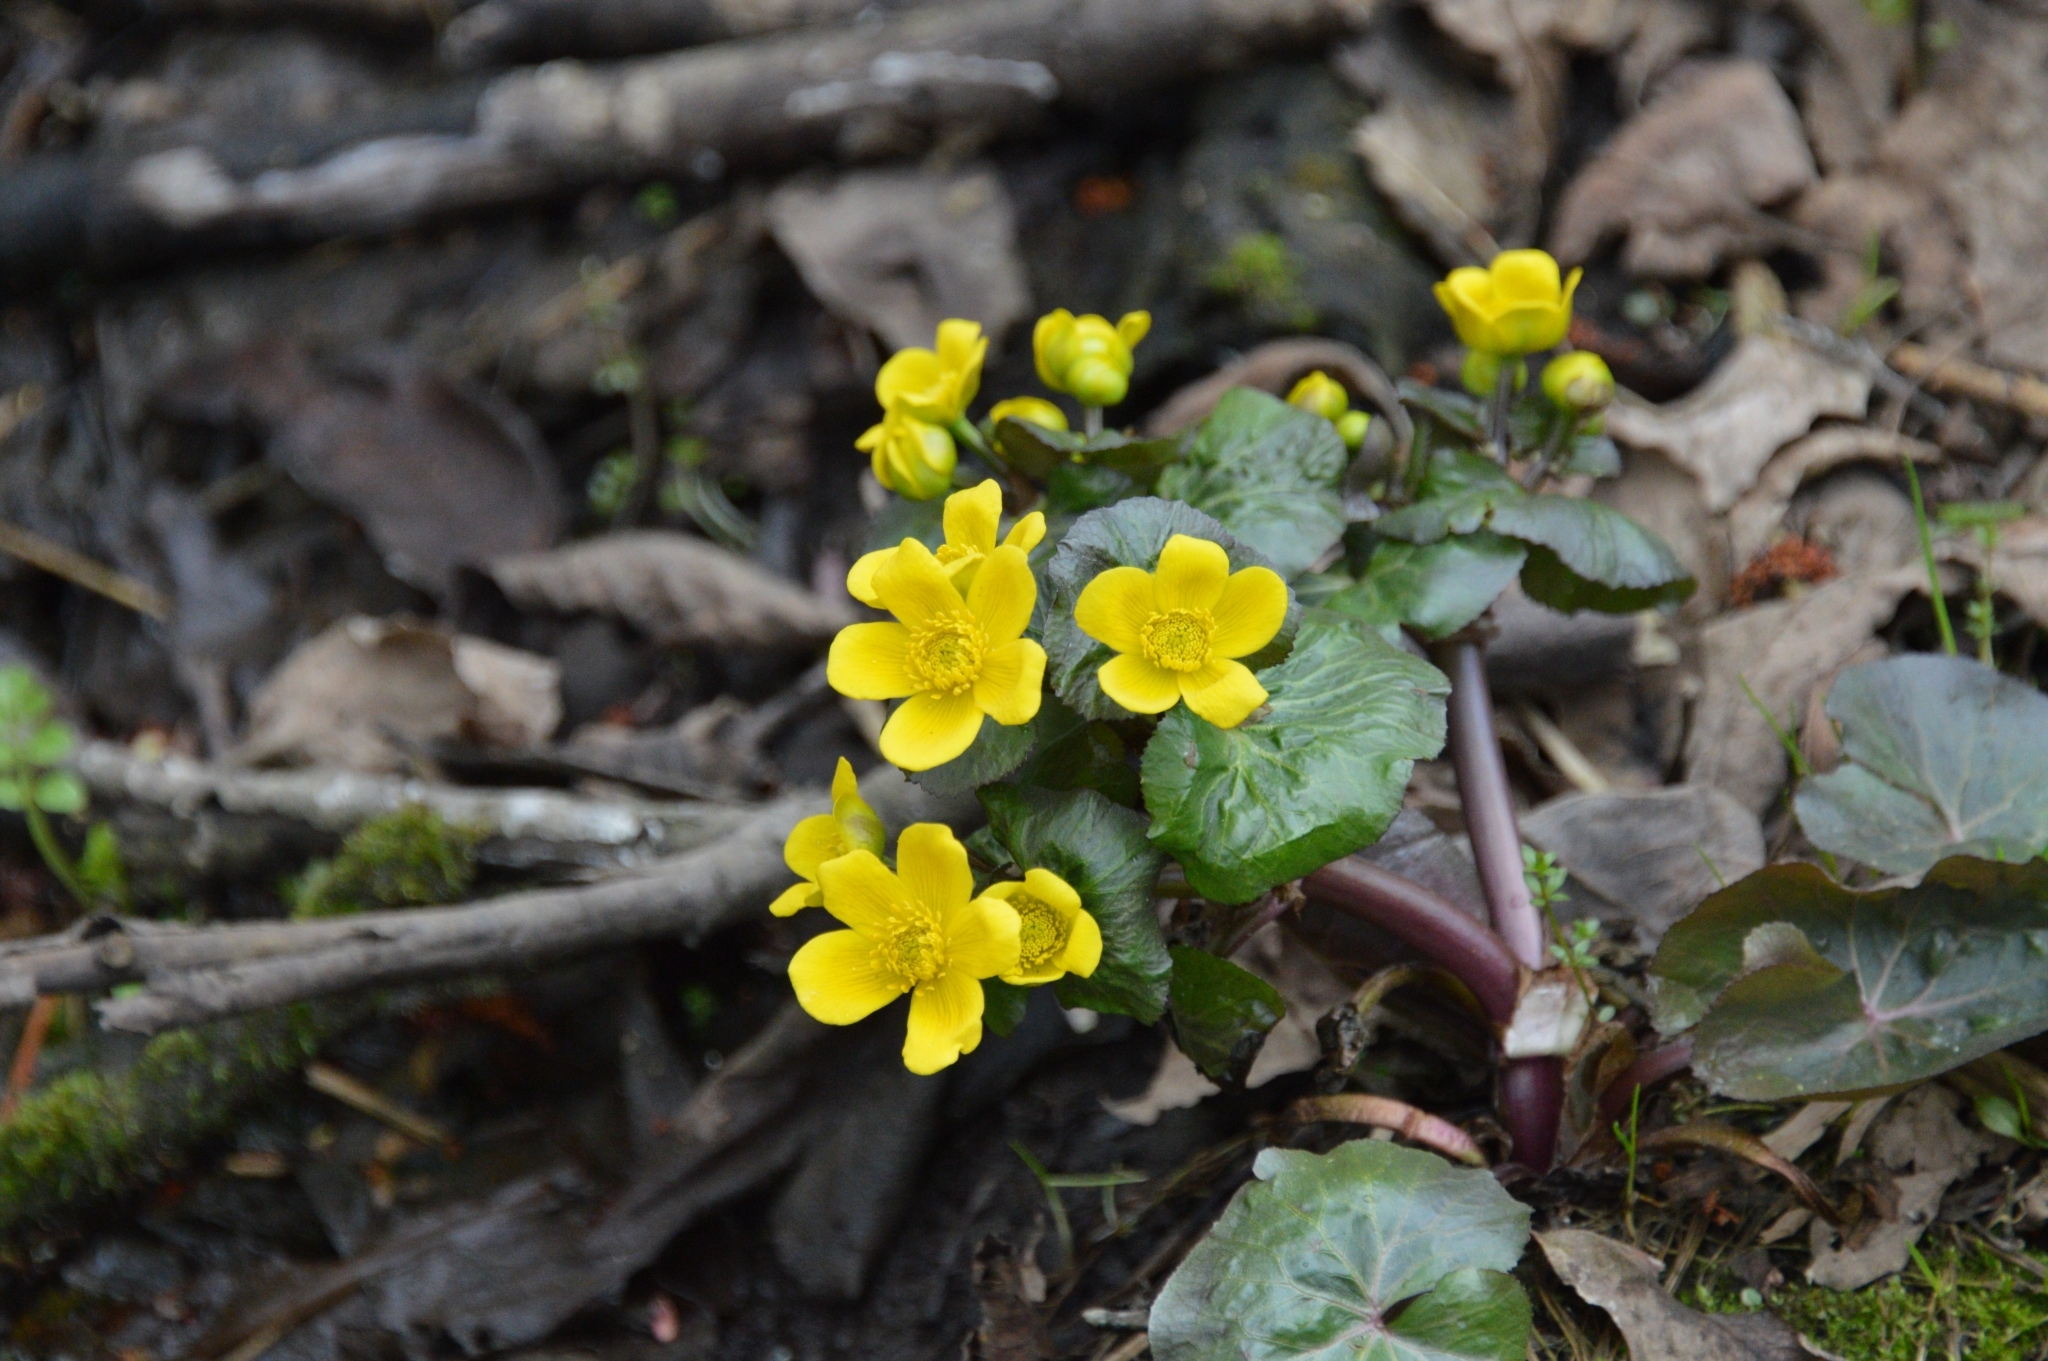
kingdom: Plantae
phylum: Tracheophyta
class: Magnoliopsida
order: Ranunculales
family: Ranunculaceae
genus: Caltha
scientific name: Caltha palustris
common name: Marsh marigold
